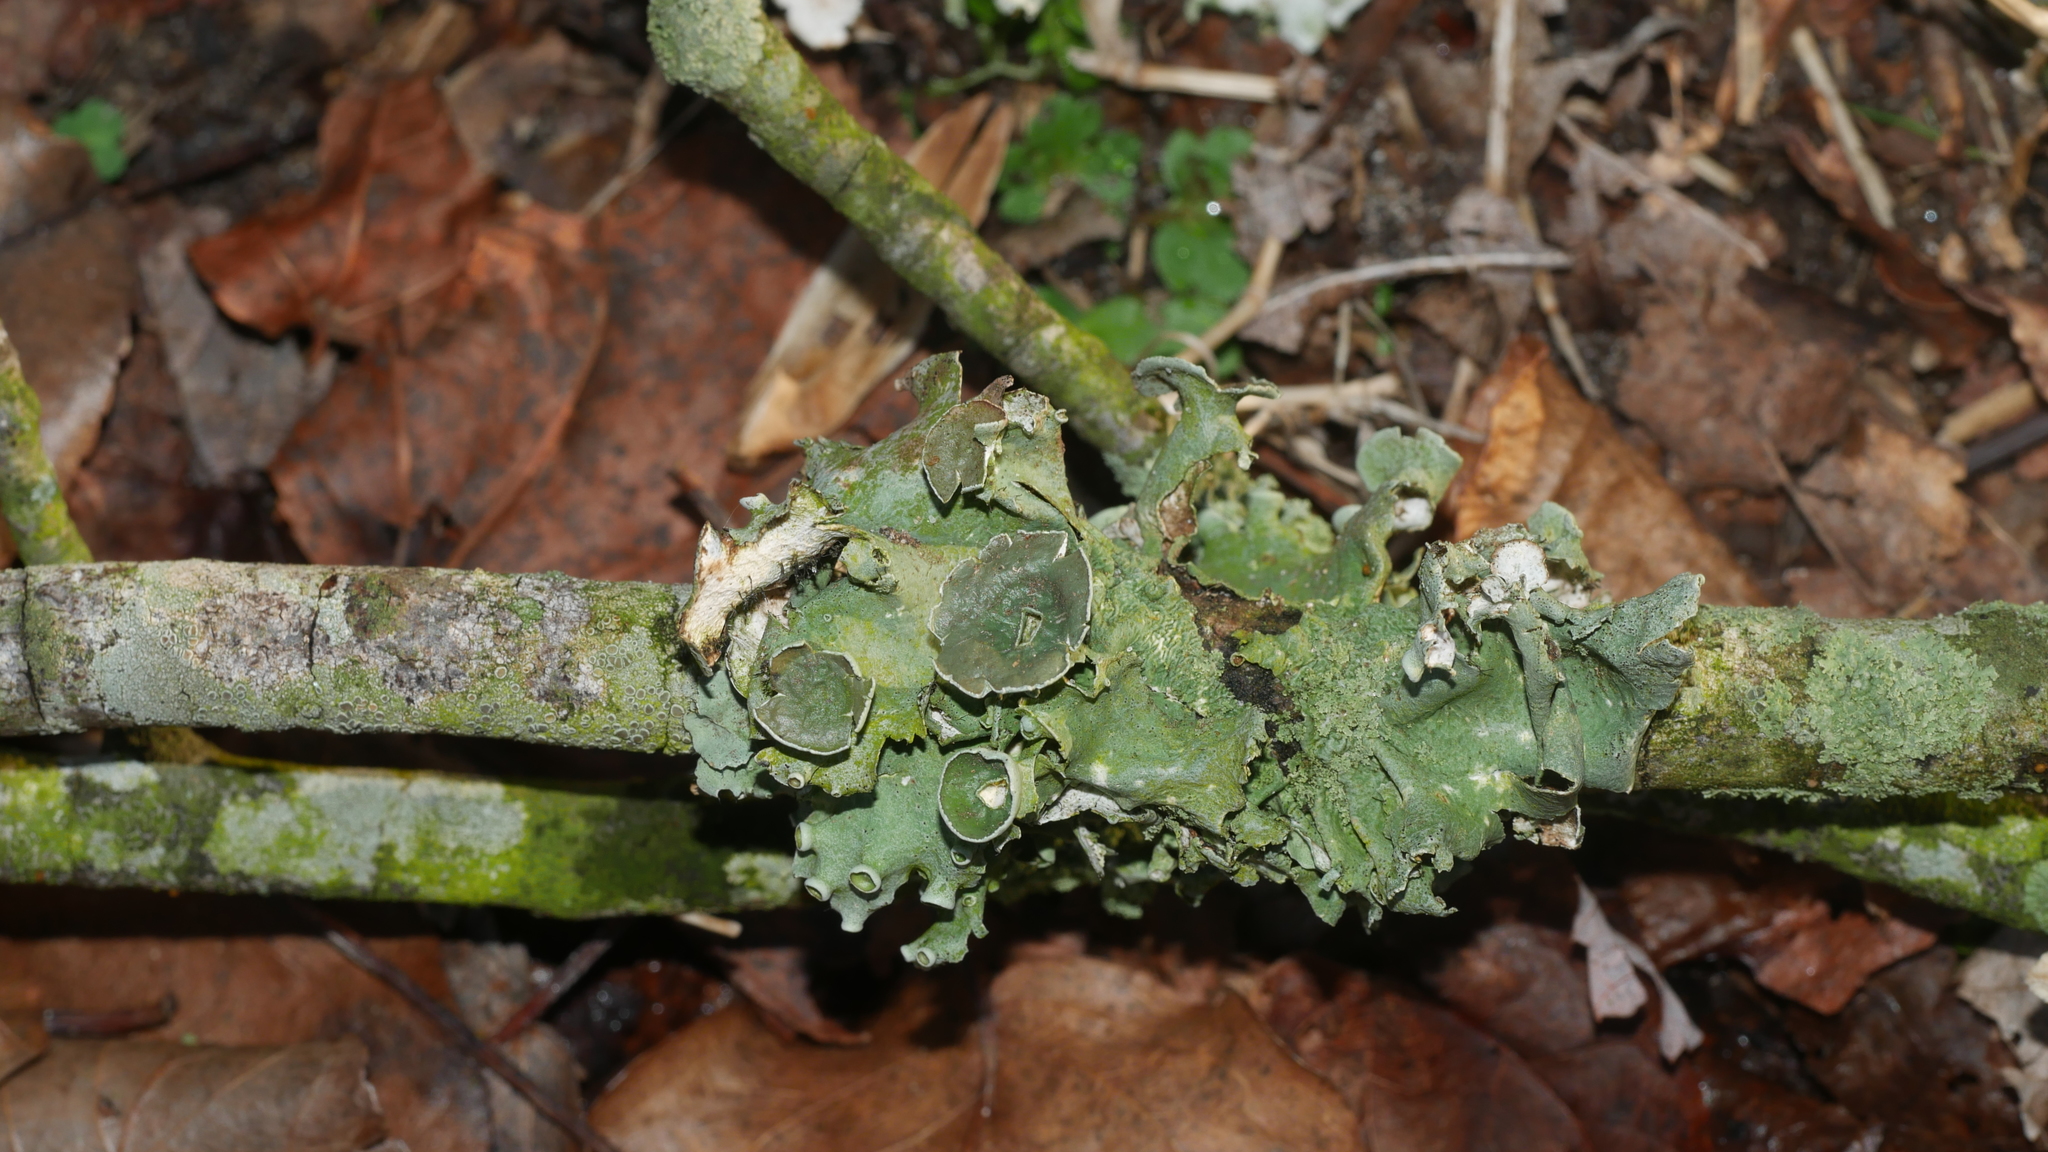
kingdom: Fungi
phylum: Ascomycota
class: Lecanoromycetes
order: Lecanorales
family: Parmeliaceae
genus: Parmotrema
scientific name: Parmotrema perforatum
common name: Perforated ruffle lichen
